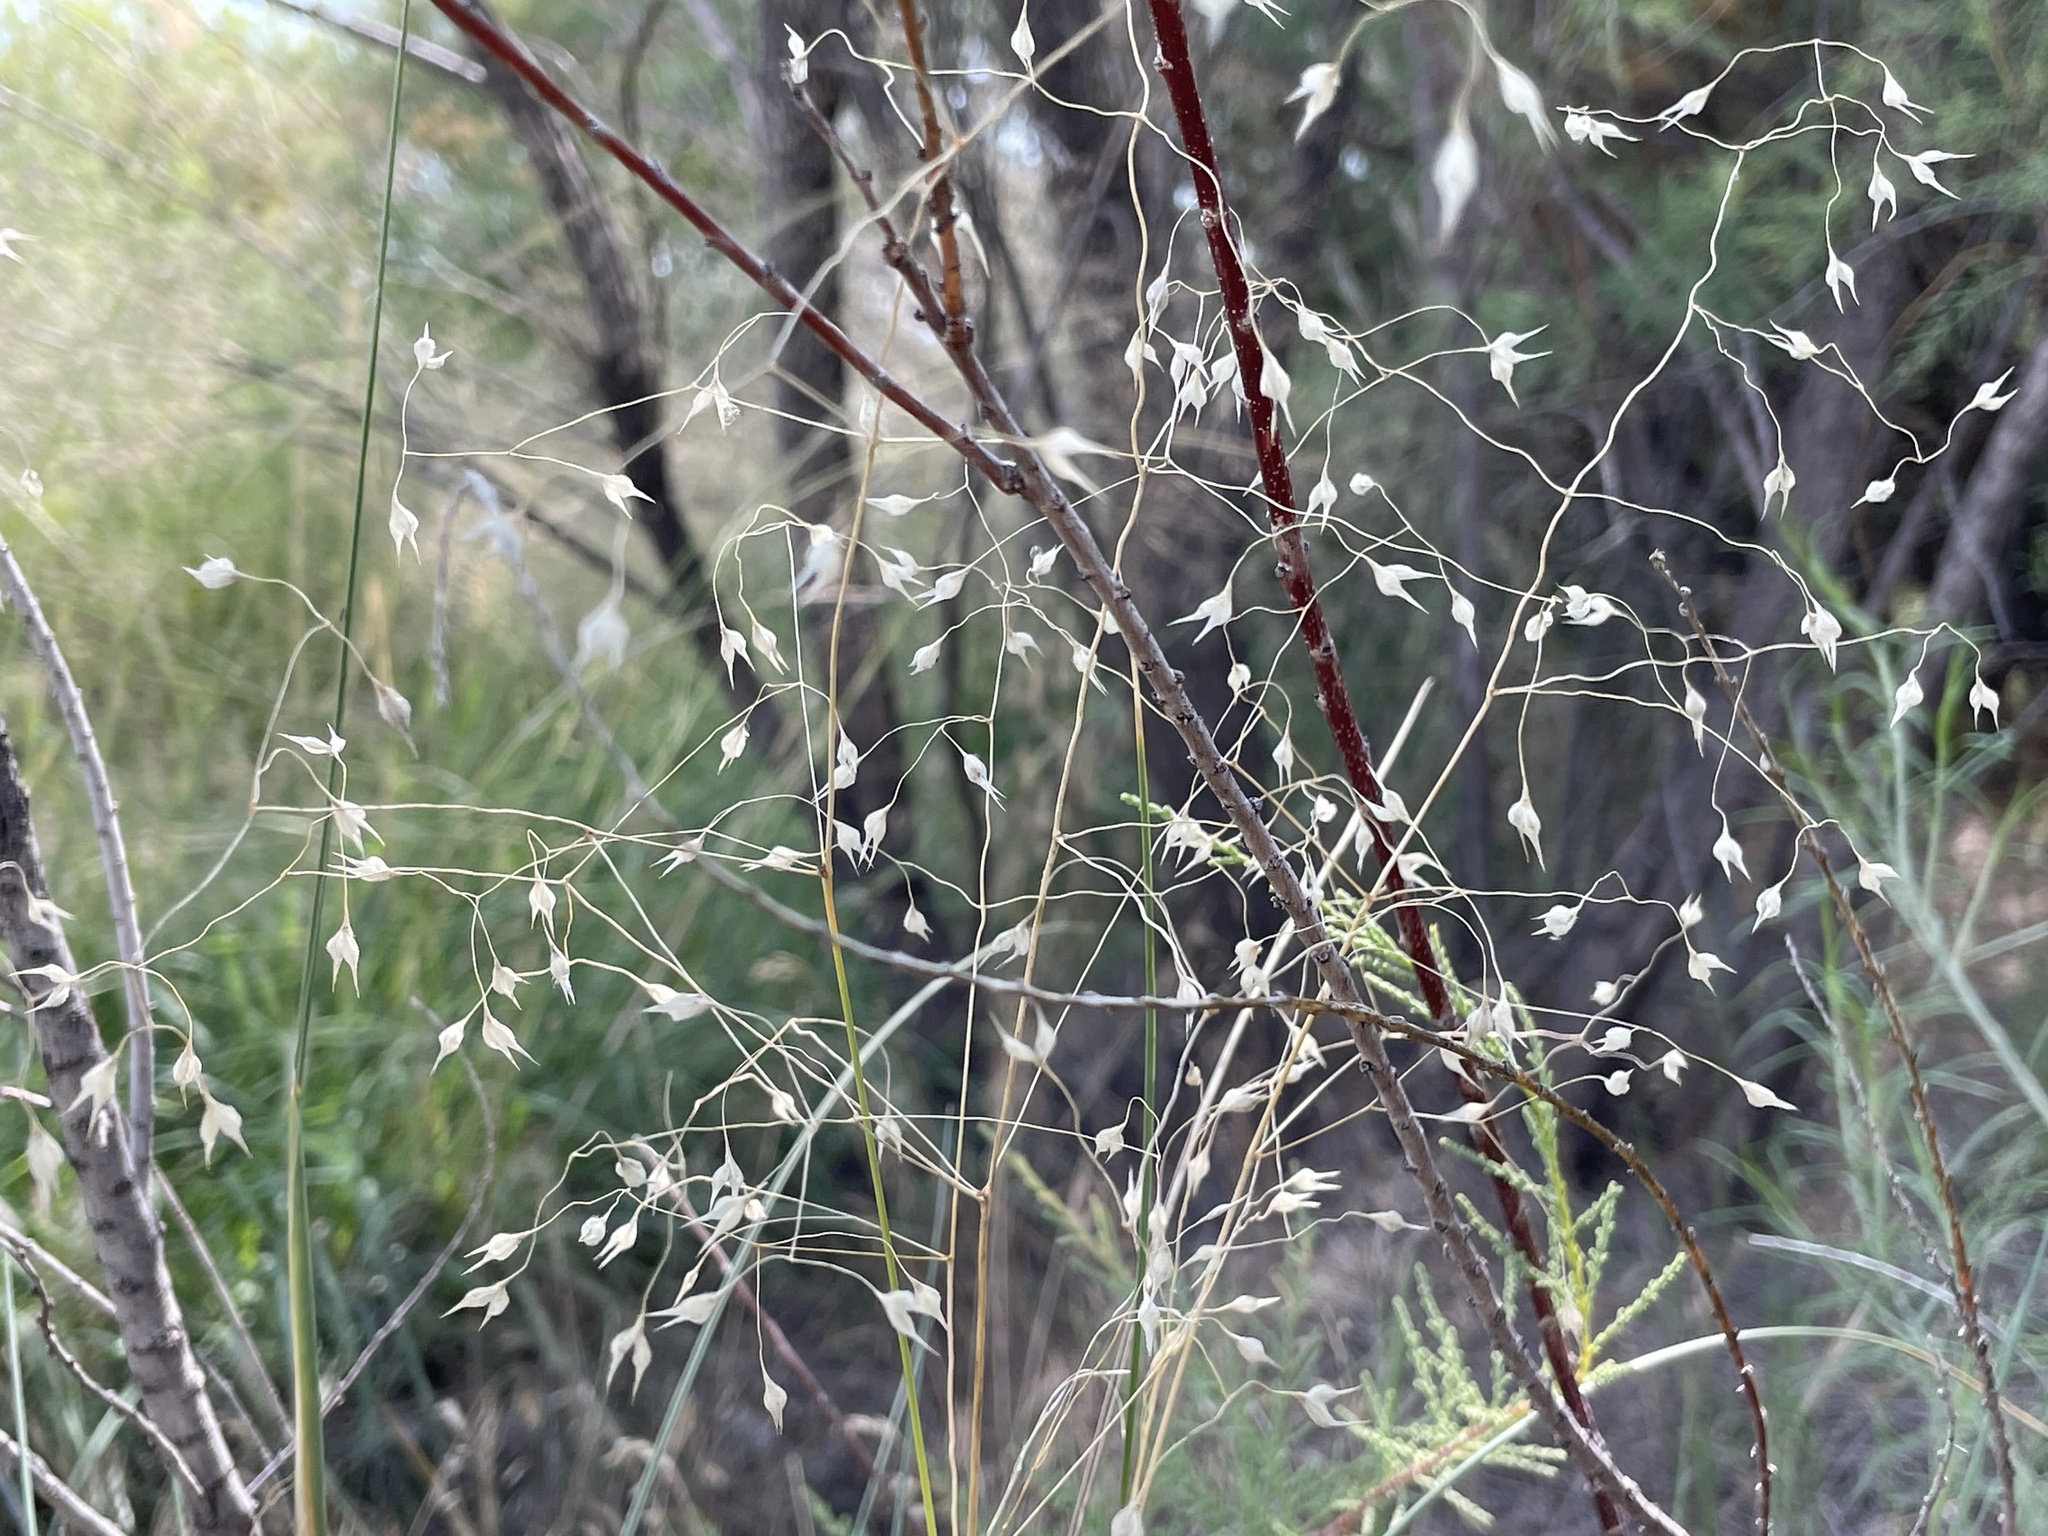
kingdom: Plantae
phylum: Tracheophyta
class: Liliopsida
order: Poales
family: Poaceae
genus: Eriocoma
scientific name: Eriocoma hymenoides
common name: Indian mountain ricegrass
